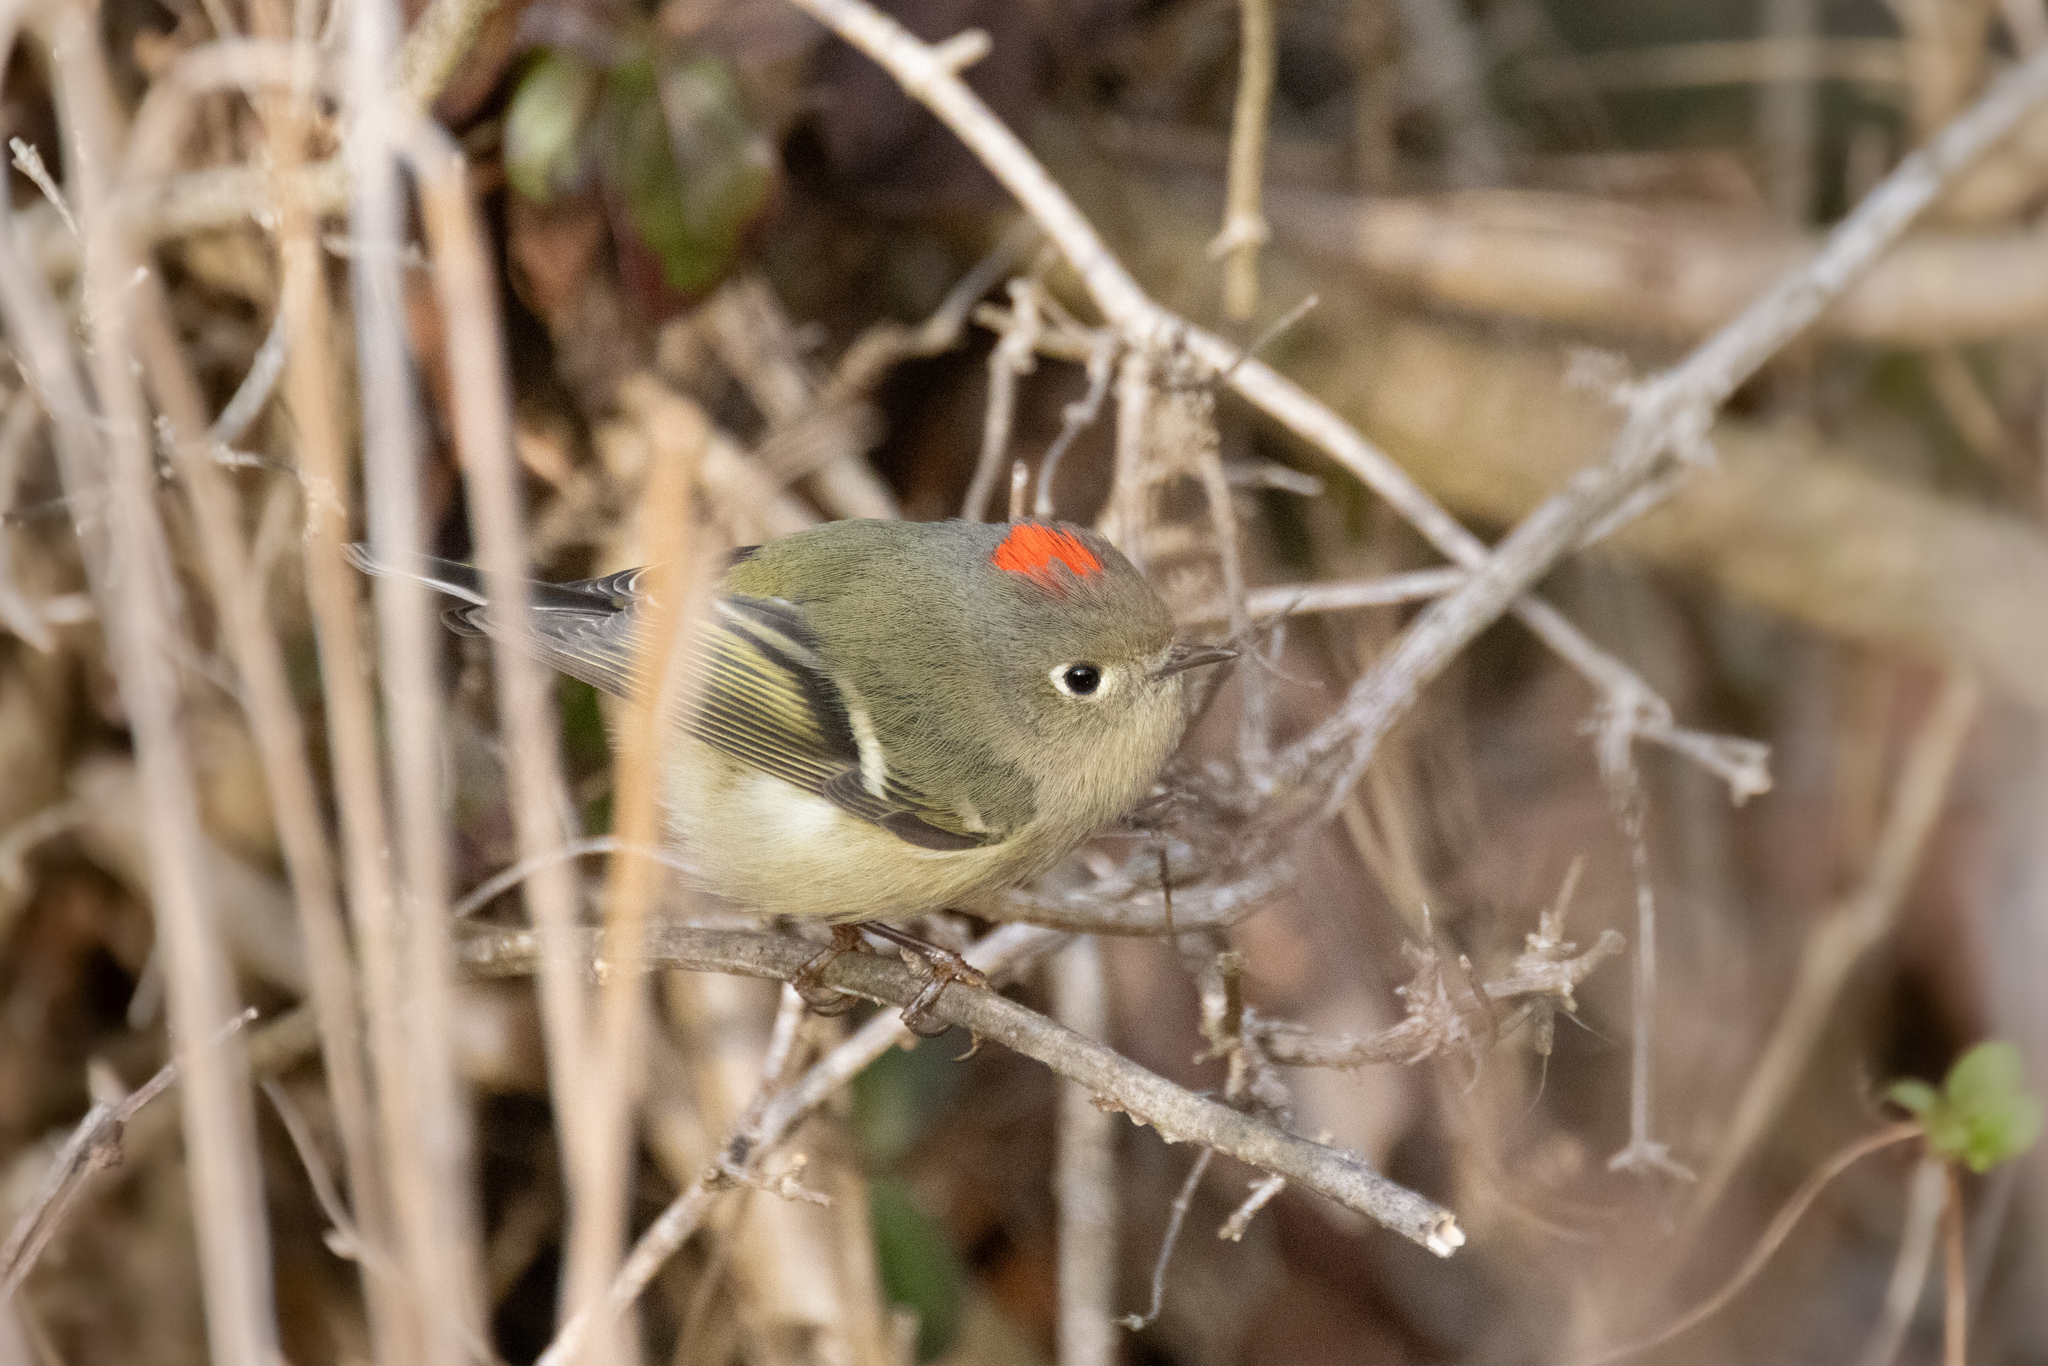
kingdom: Animalia
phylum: Chordata
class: Aves
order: Passeriformes
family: Regulidae
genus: Regulus
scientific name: Regulus calendula
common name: Ruby-crowned kinglet
